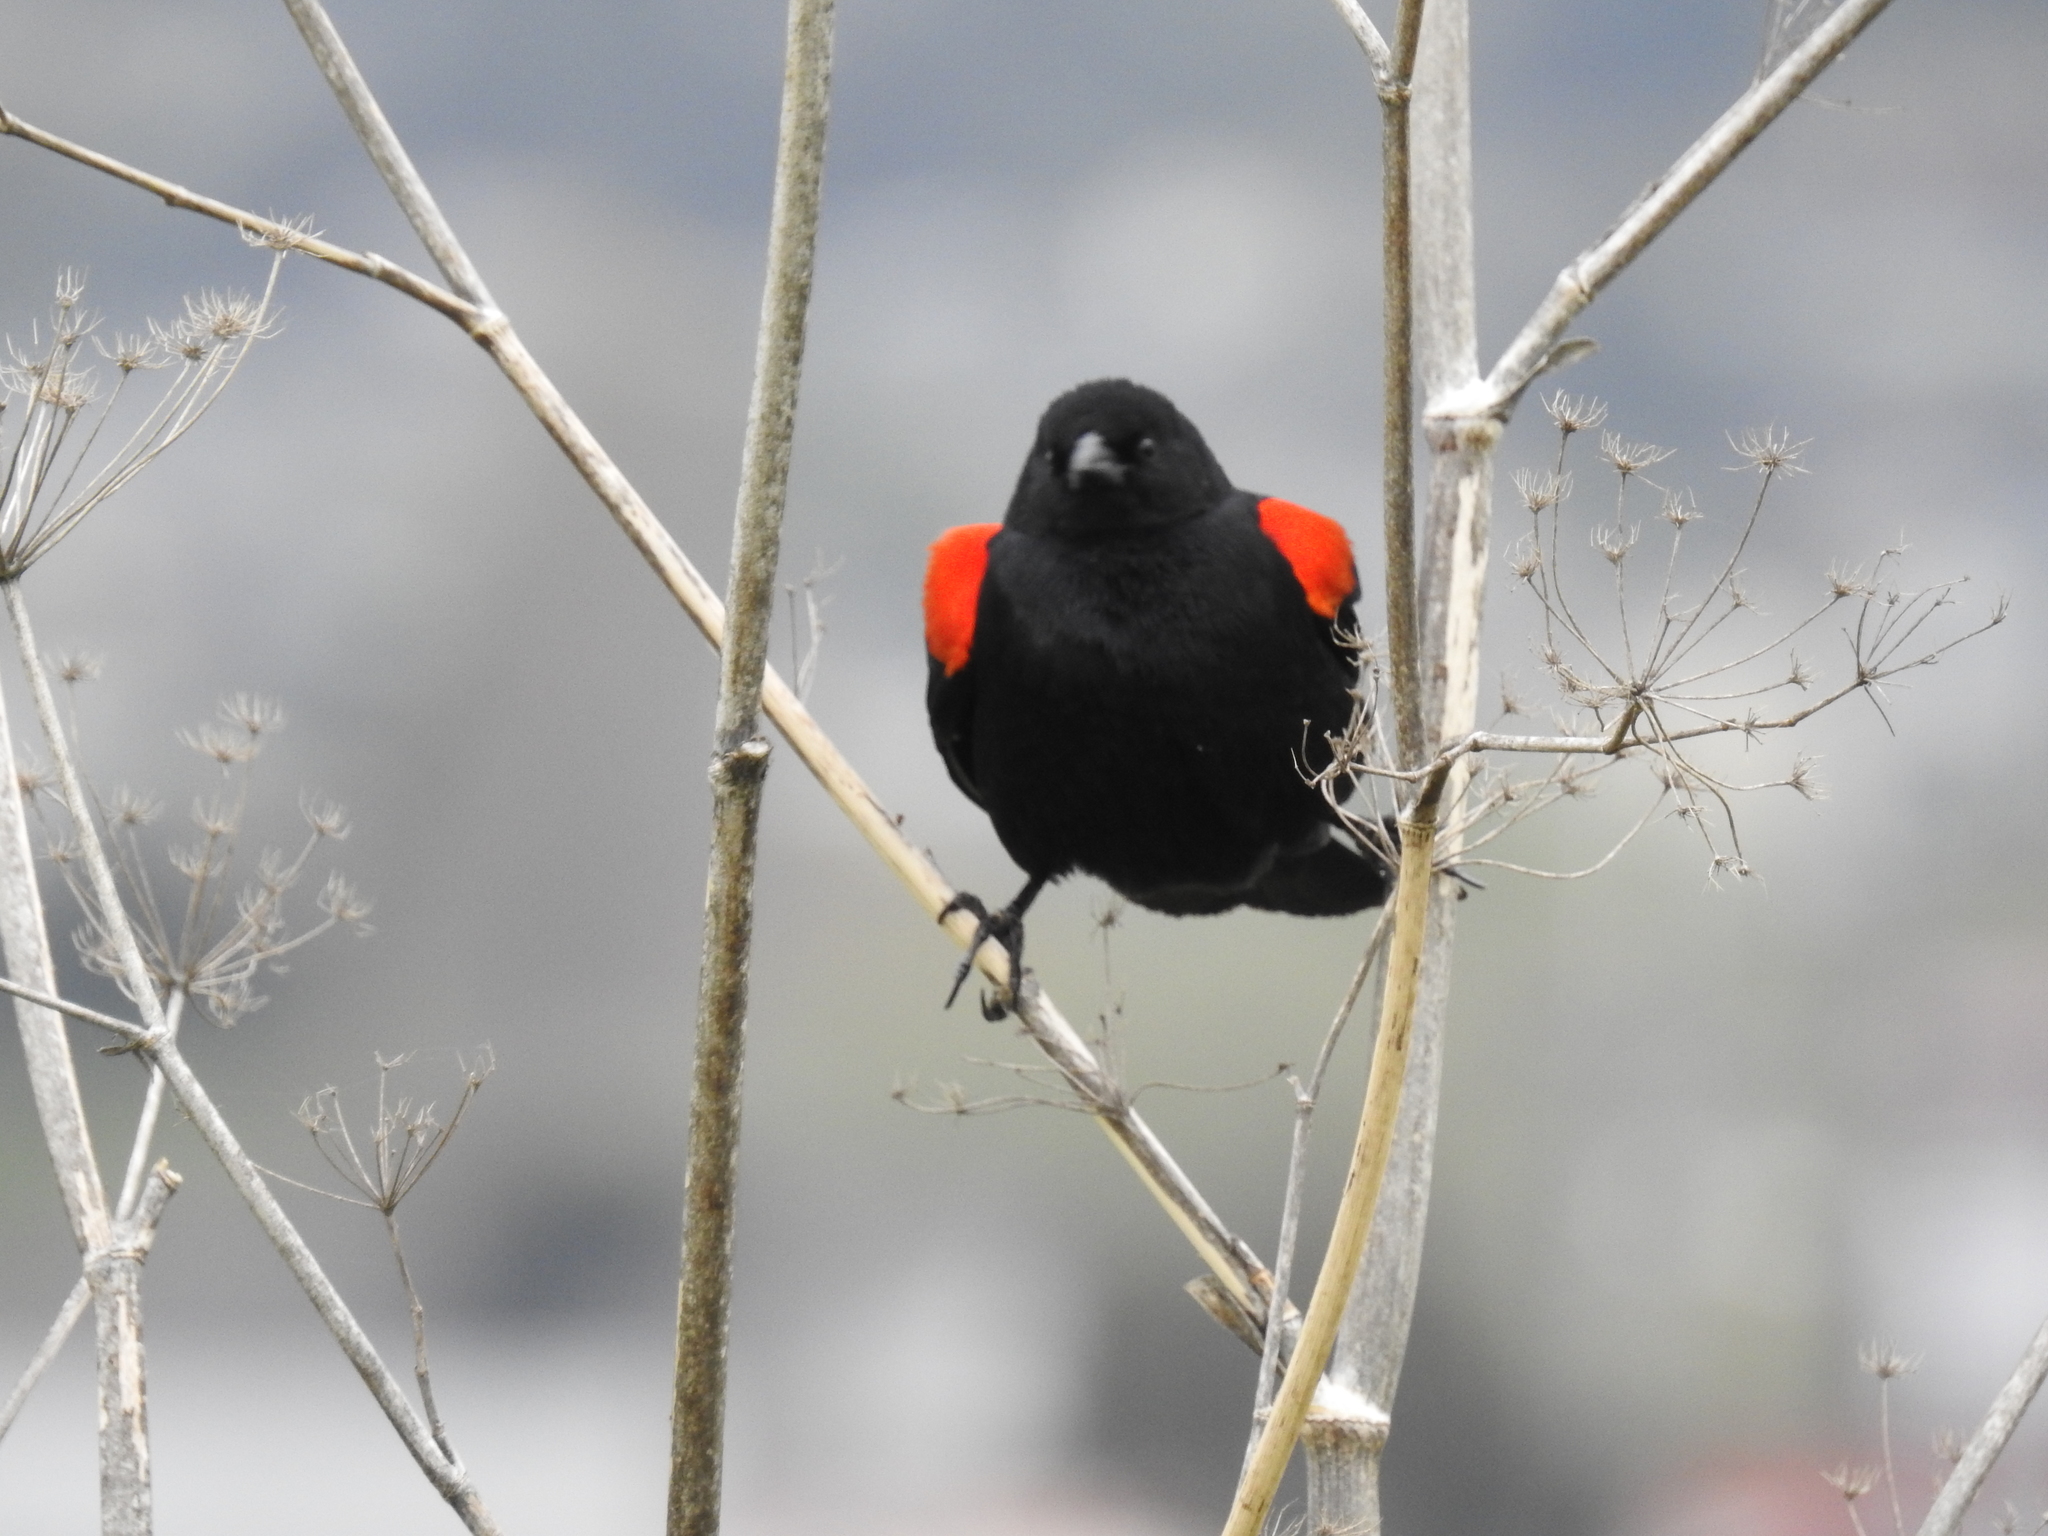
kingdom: Animalia
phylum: Chordata
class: Aves
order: Passeriformes
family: Icteridae
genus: Agelaius
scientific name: Agelaius phoeniceus
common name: Red-winged blackbird
